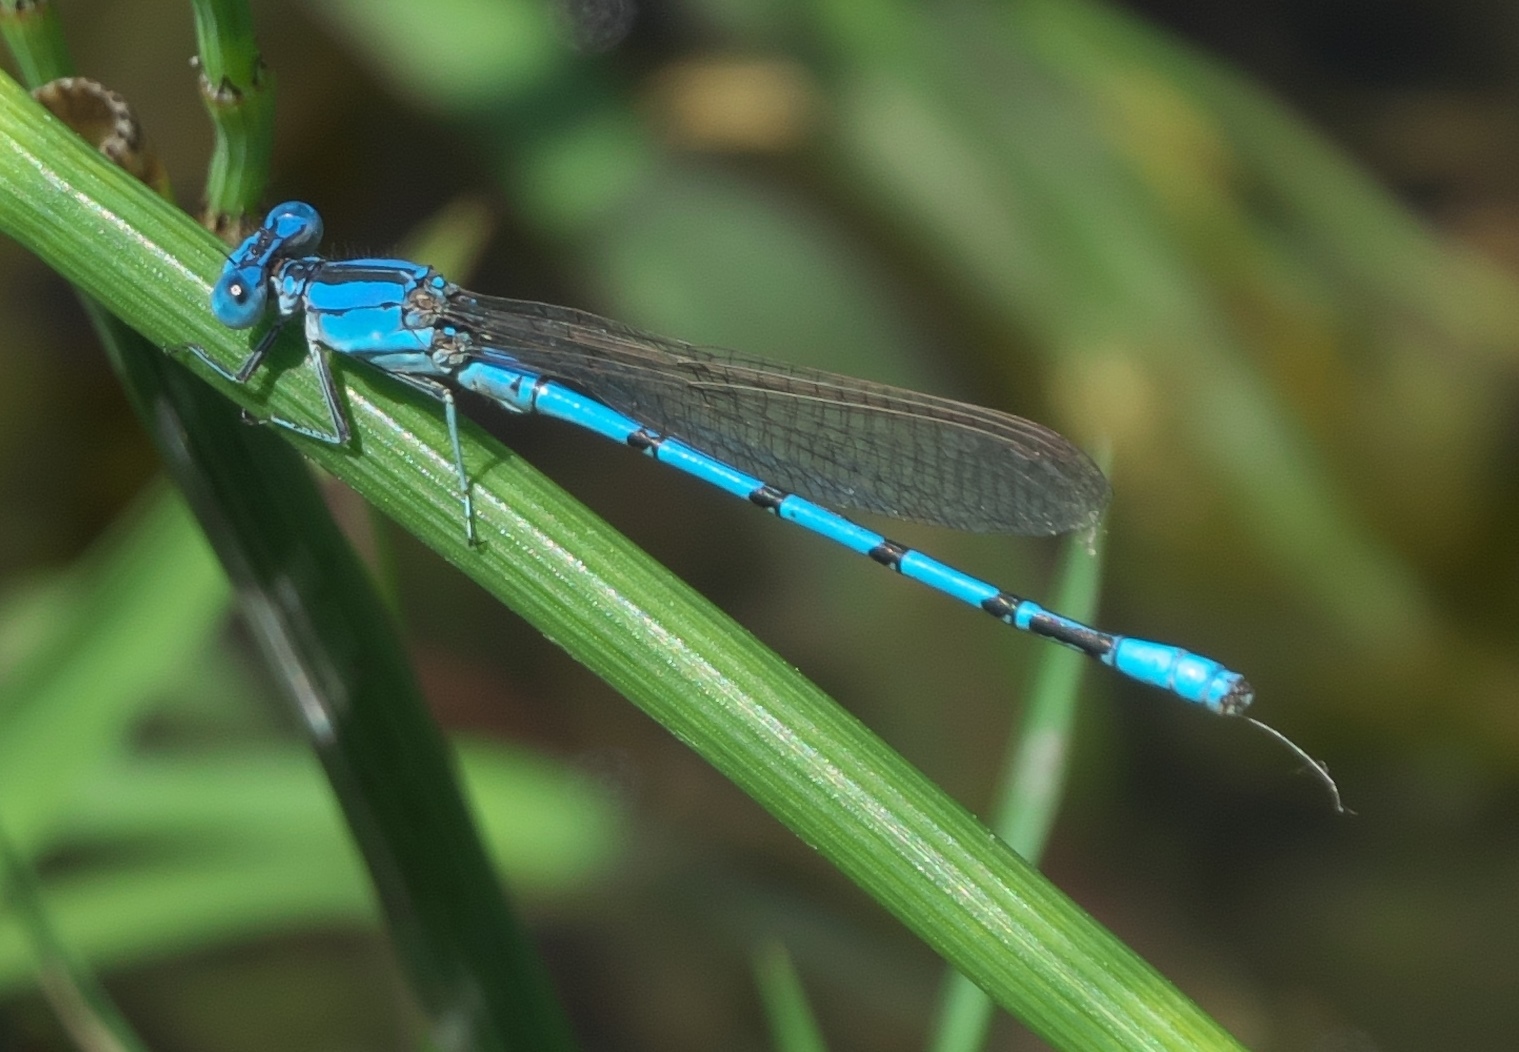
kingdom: Animalia
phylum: Arthropoda
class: Insecta
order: Odonata
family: Coenagrionidae
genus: Argia
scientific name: Argia nahuana
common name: Aztec dancer
